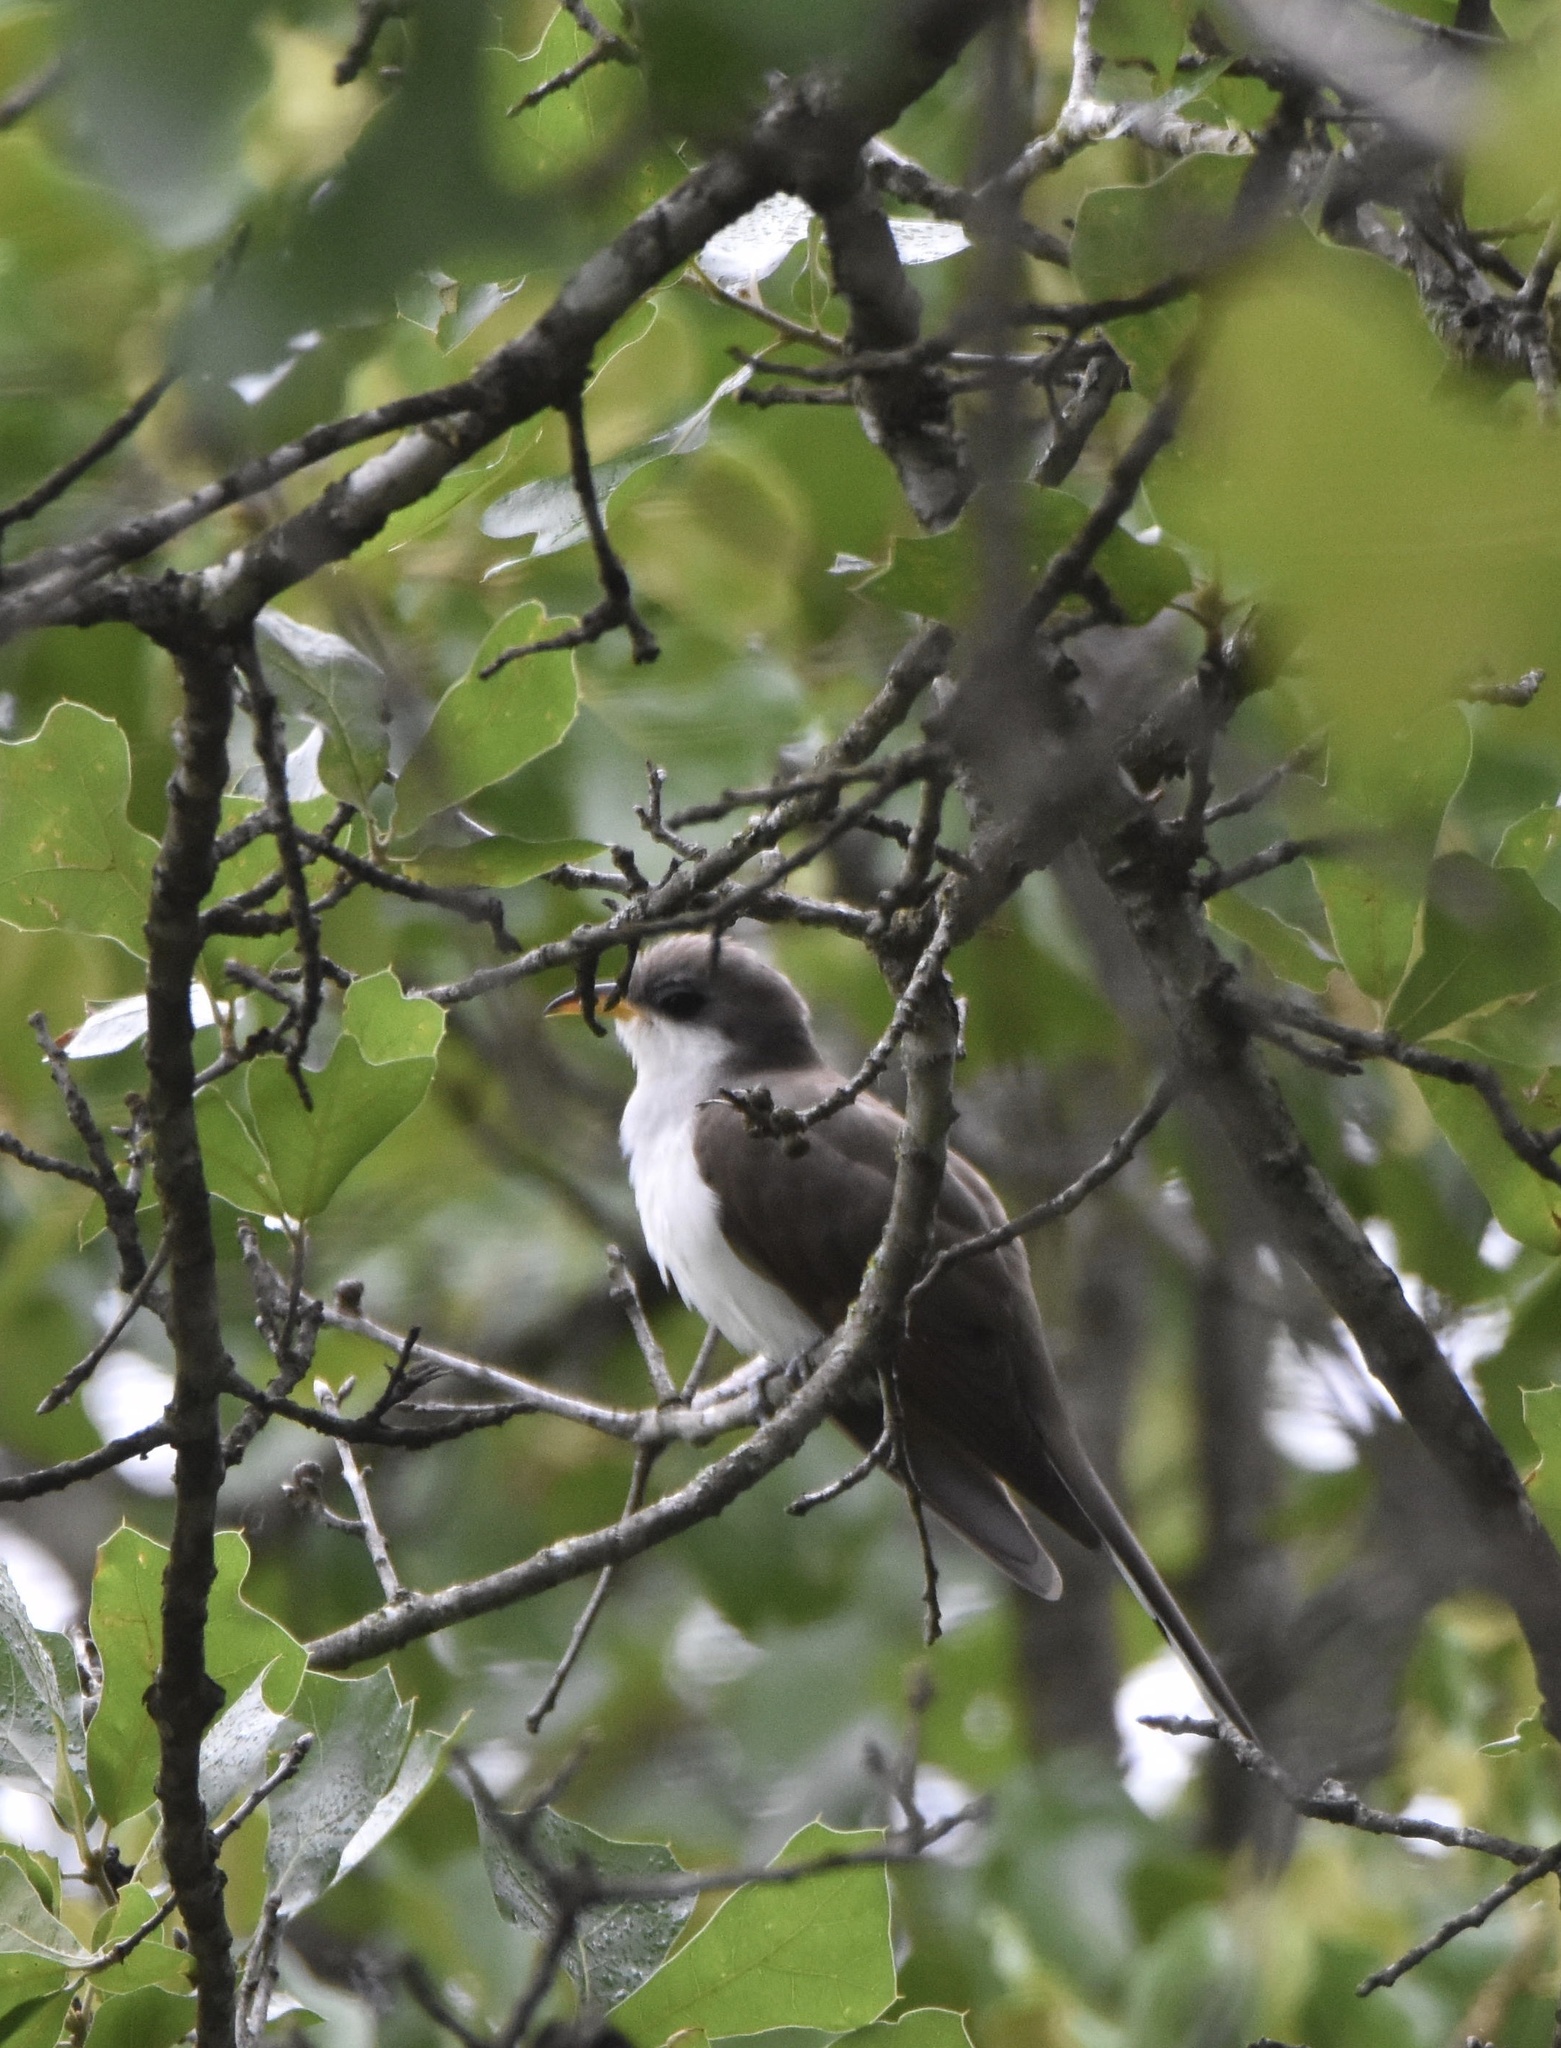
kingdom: Animalia
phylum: Chordata
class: Aves
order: Cuculiformes
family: Cuculidae
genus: Coccyzus
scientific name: Coccyzus americanus
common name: Yellow-billed cuckoo
